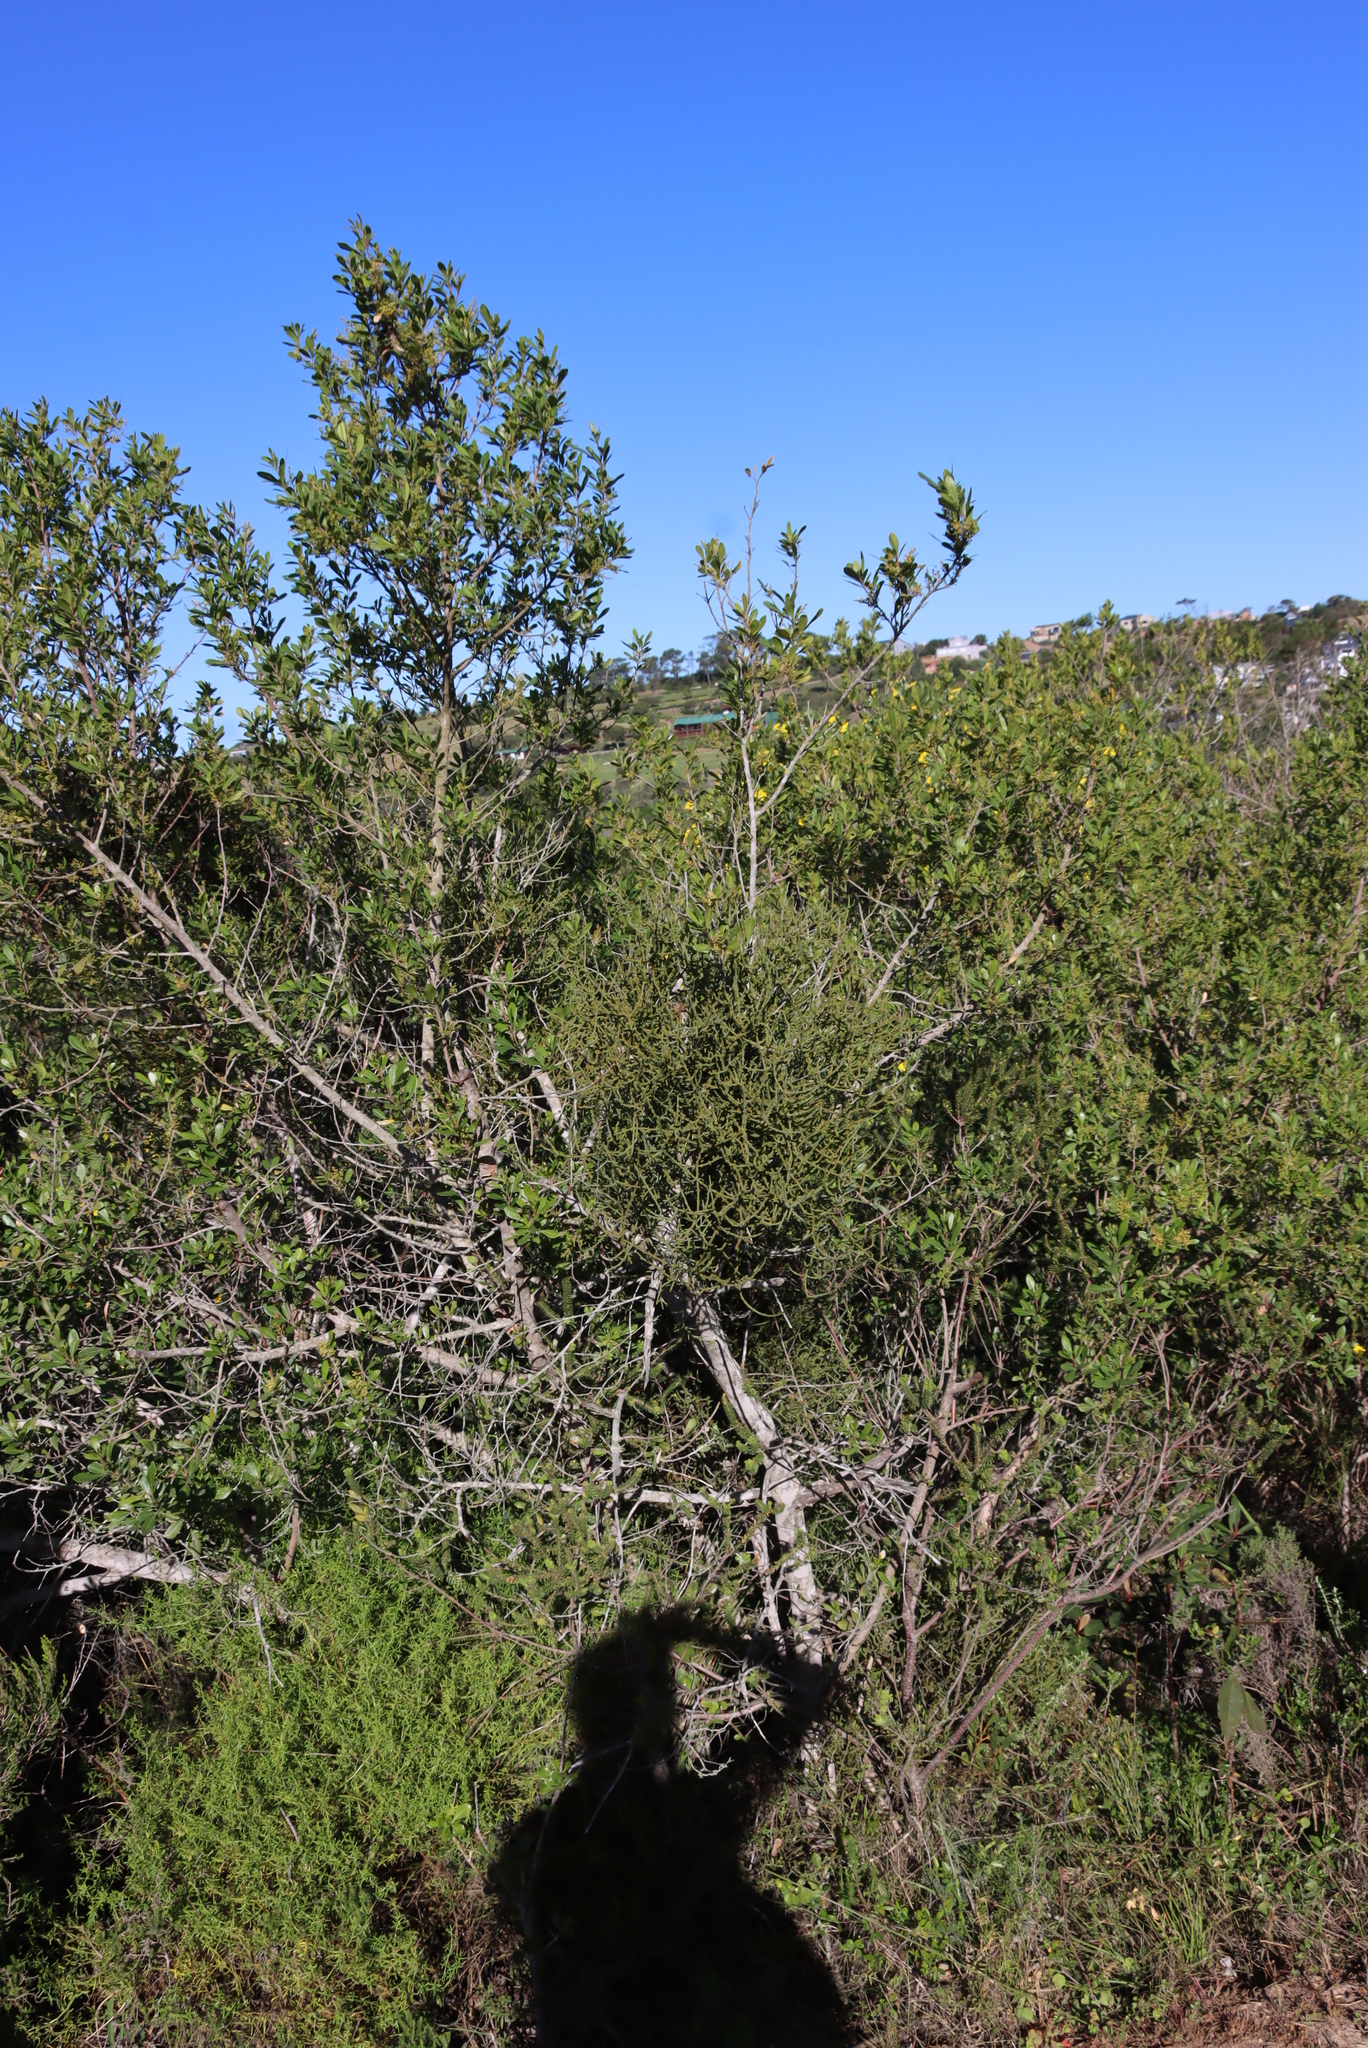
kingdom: Plantae
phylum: Tracheophyta
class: Magnoliopsida
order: Sapindales
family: Anacardiaceae
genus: Searsia
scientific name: Searsia lucida
